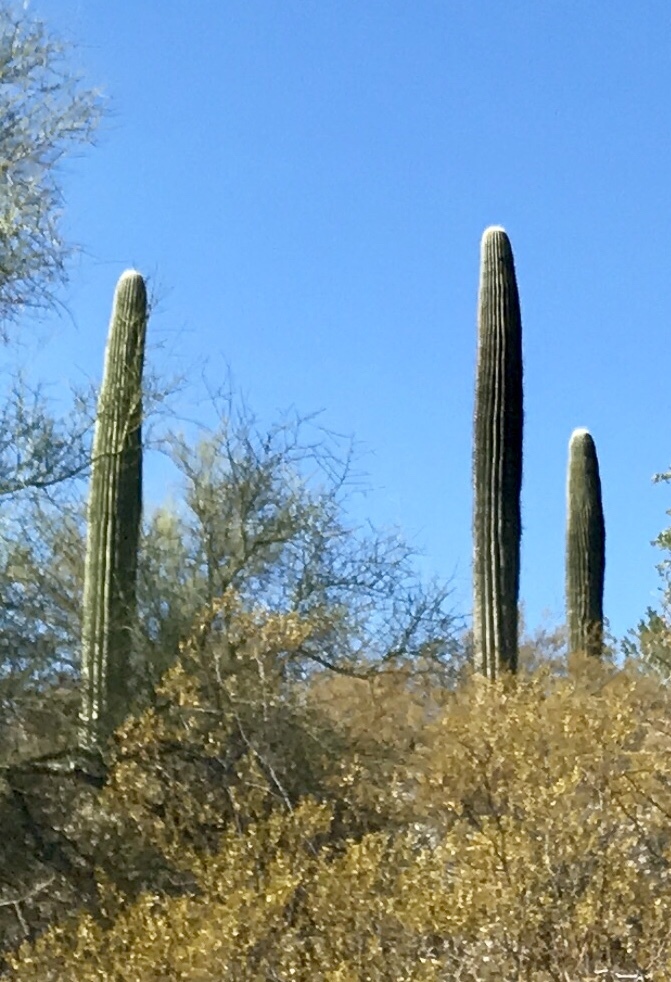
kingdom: Plantae
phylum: Tracheophyta
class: Magnoliopsida
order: Caryophyllales
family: Cactaceae
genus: Carnegiea
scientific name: Carnegiea gigantea
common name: Saguaro
